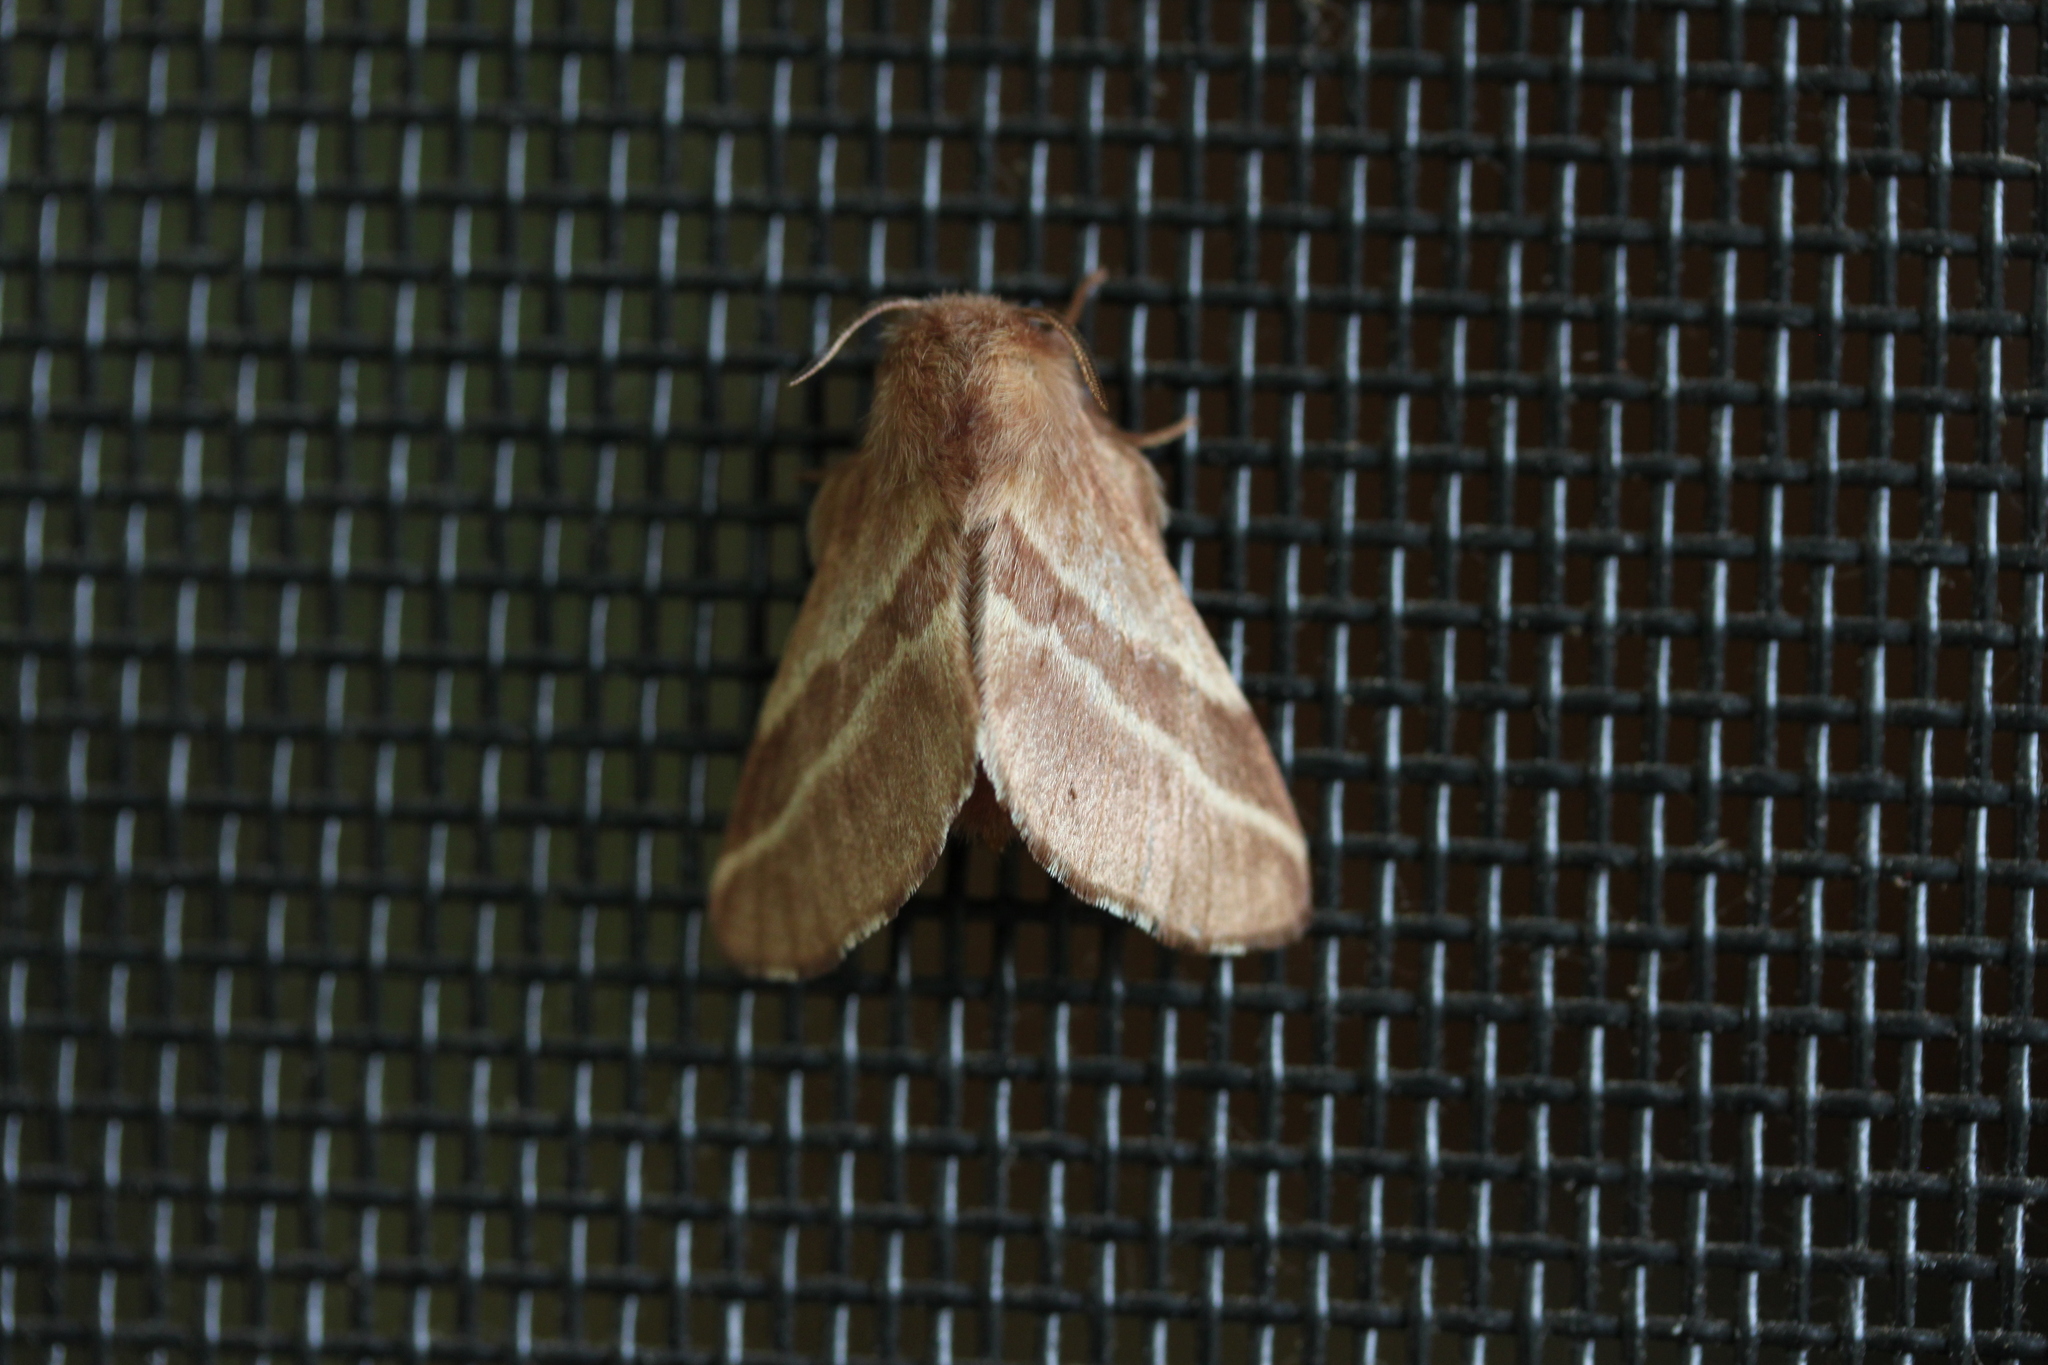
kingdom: Animalia
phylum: Arthropoda
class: Insecta
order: Lepidoptera
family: Lasiocampidae
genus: Malacosoma
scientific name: Malacosoma americana
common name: Eastern tent caterpillar moth
